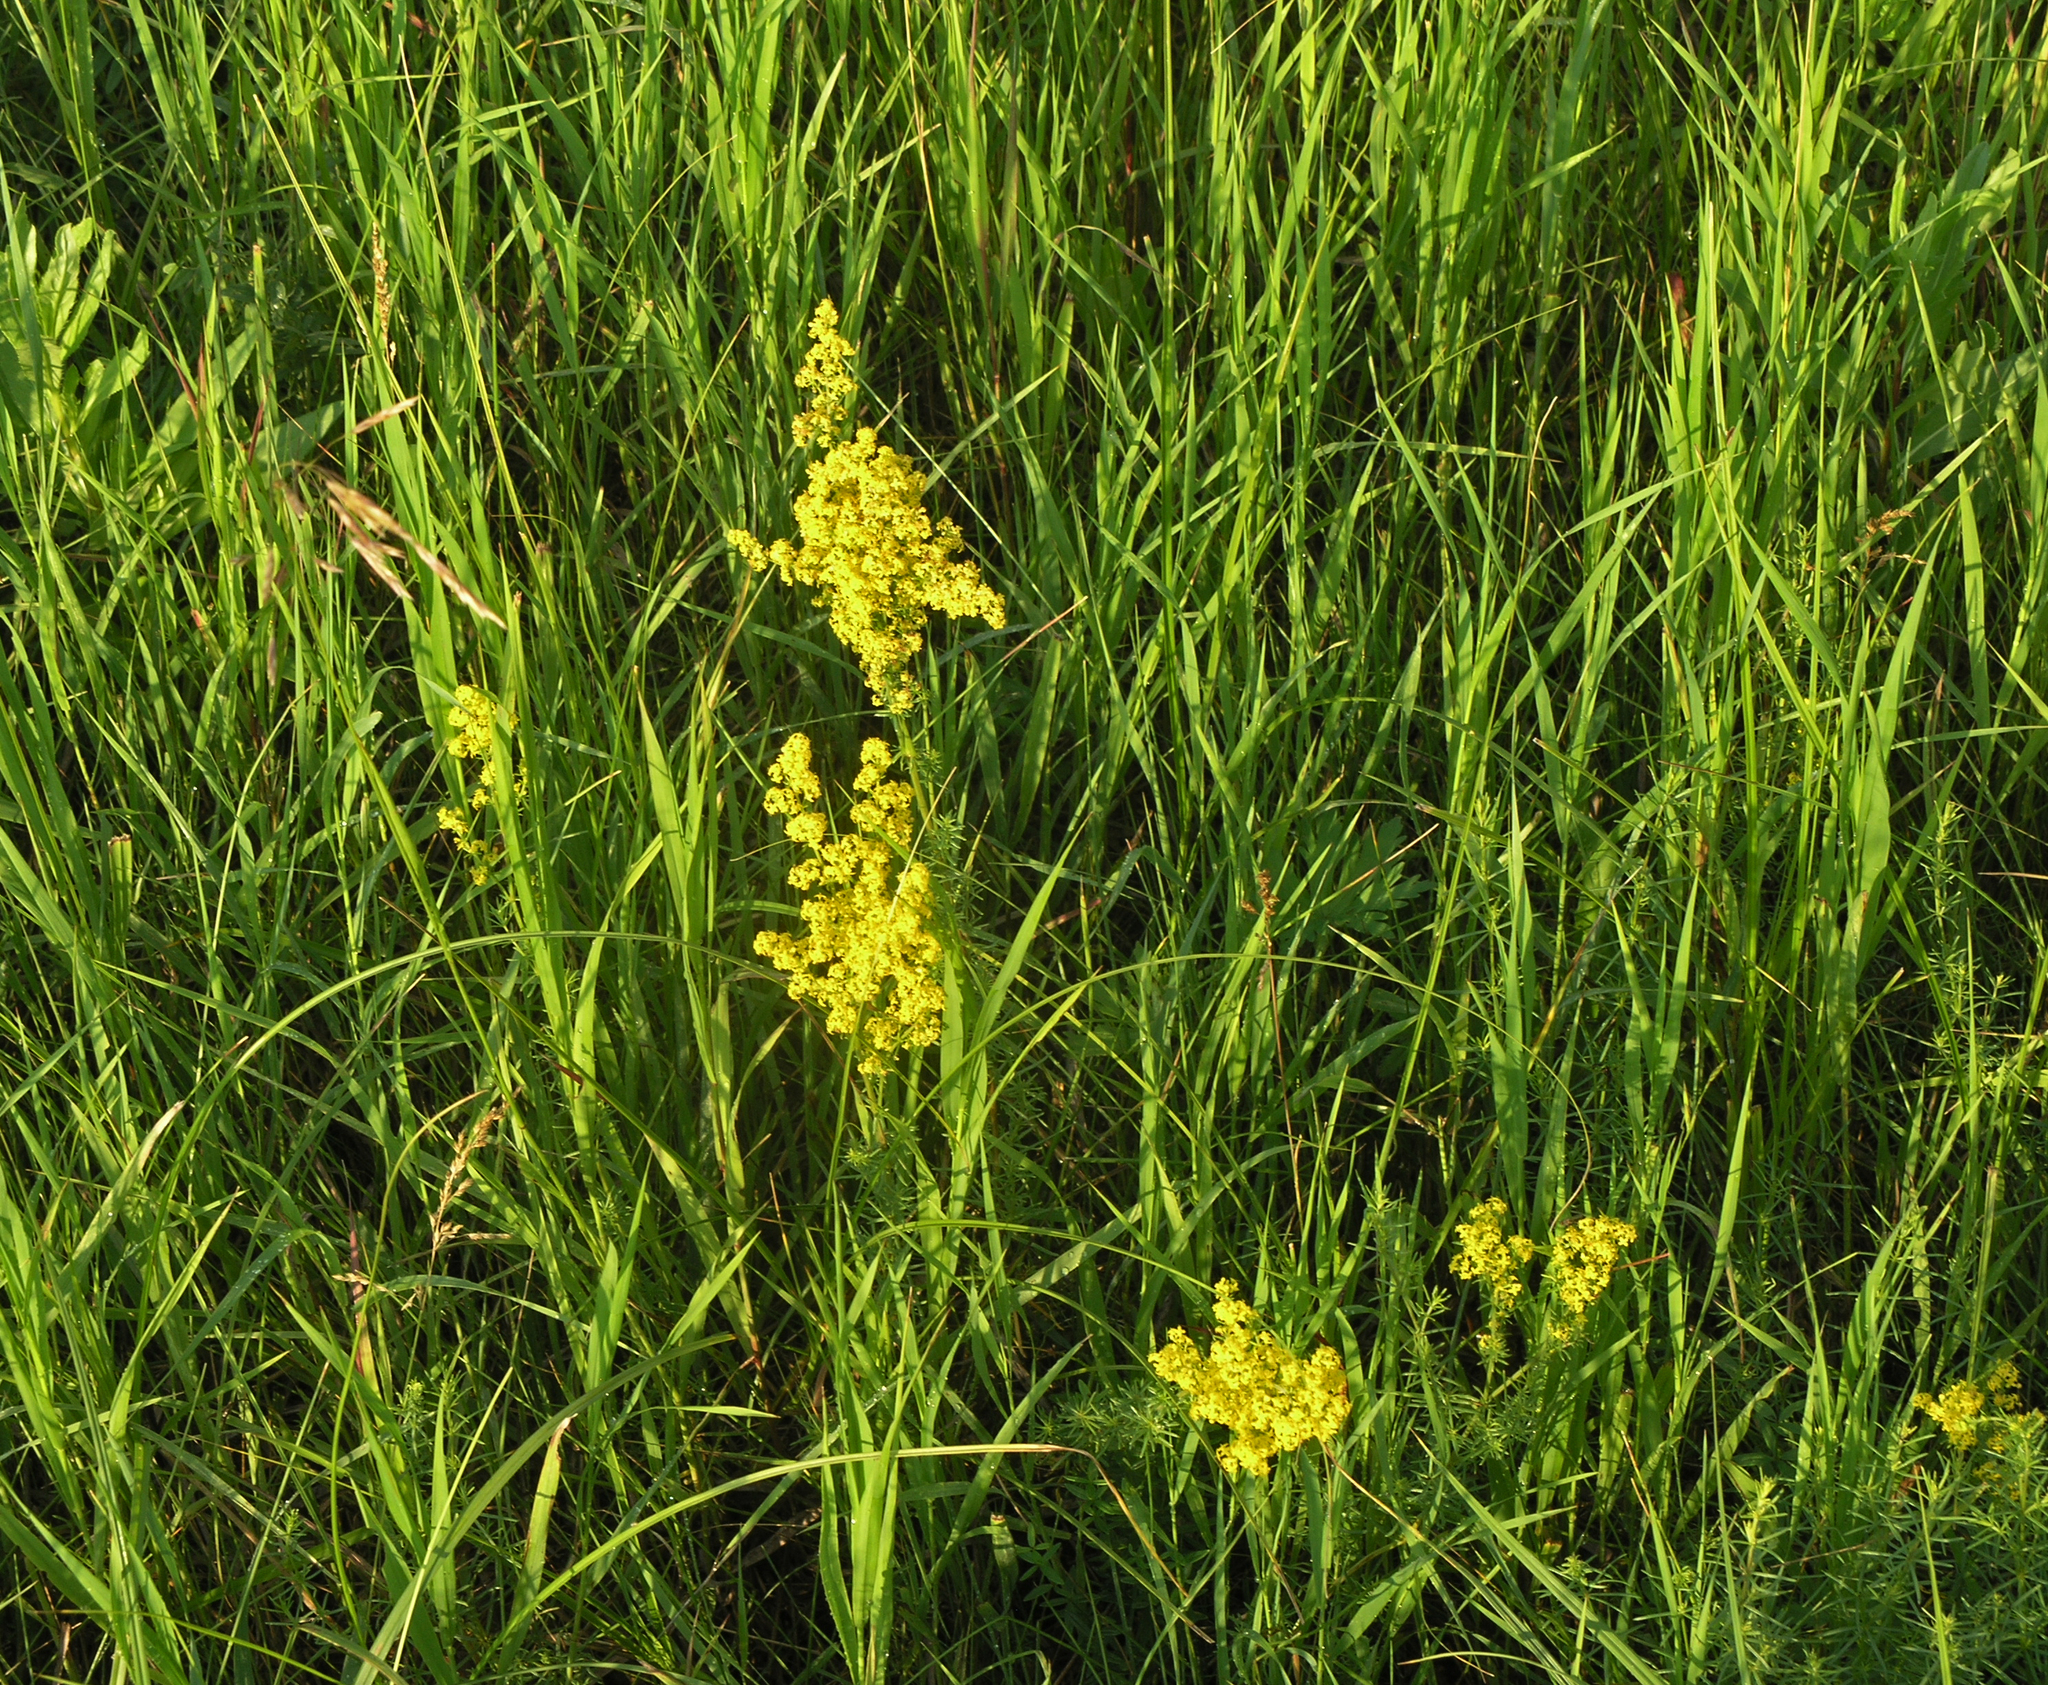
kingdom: Plantae
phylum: Tracheophyta
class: Magnoliopsida
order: Gentianales
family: Rubiaceae
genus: Galium
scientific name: Galium verum
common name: Lady's bedstraw
